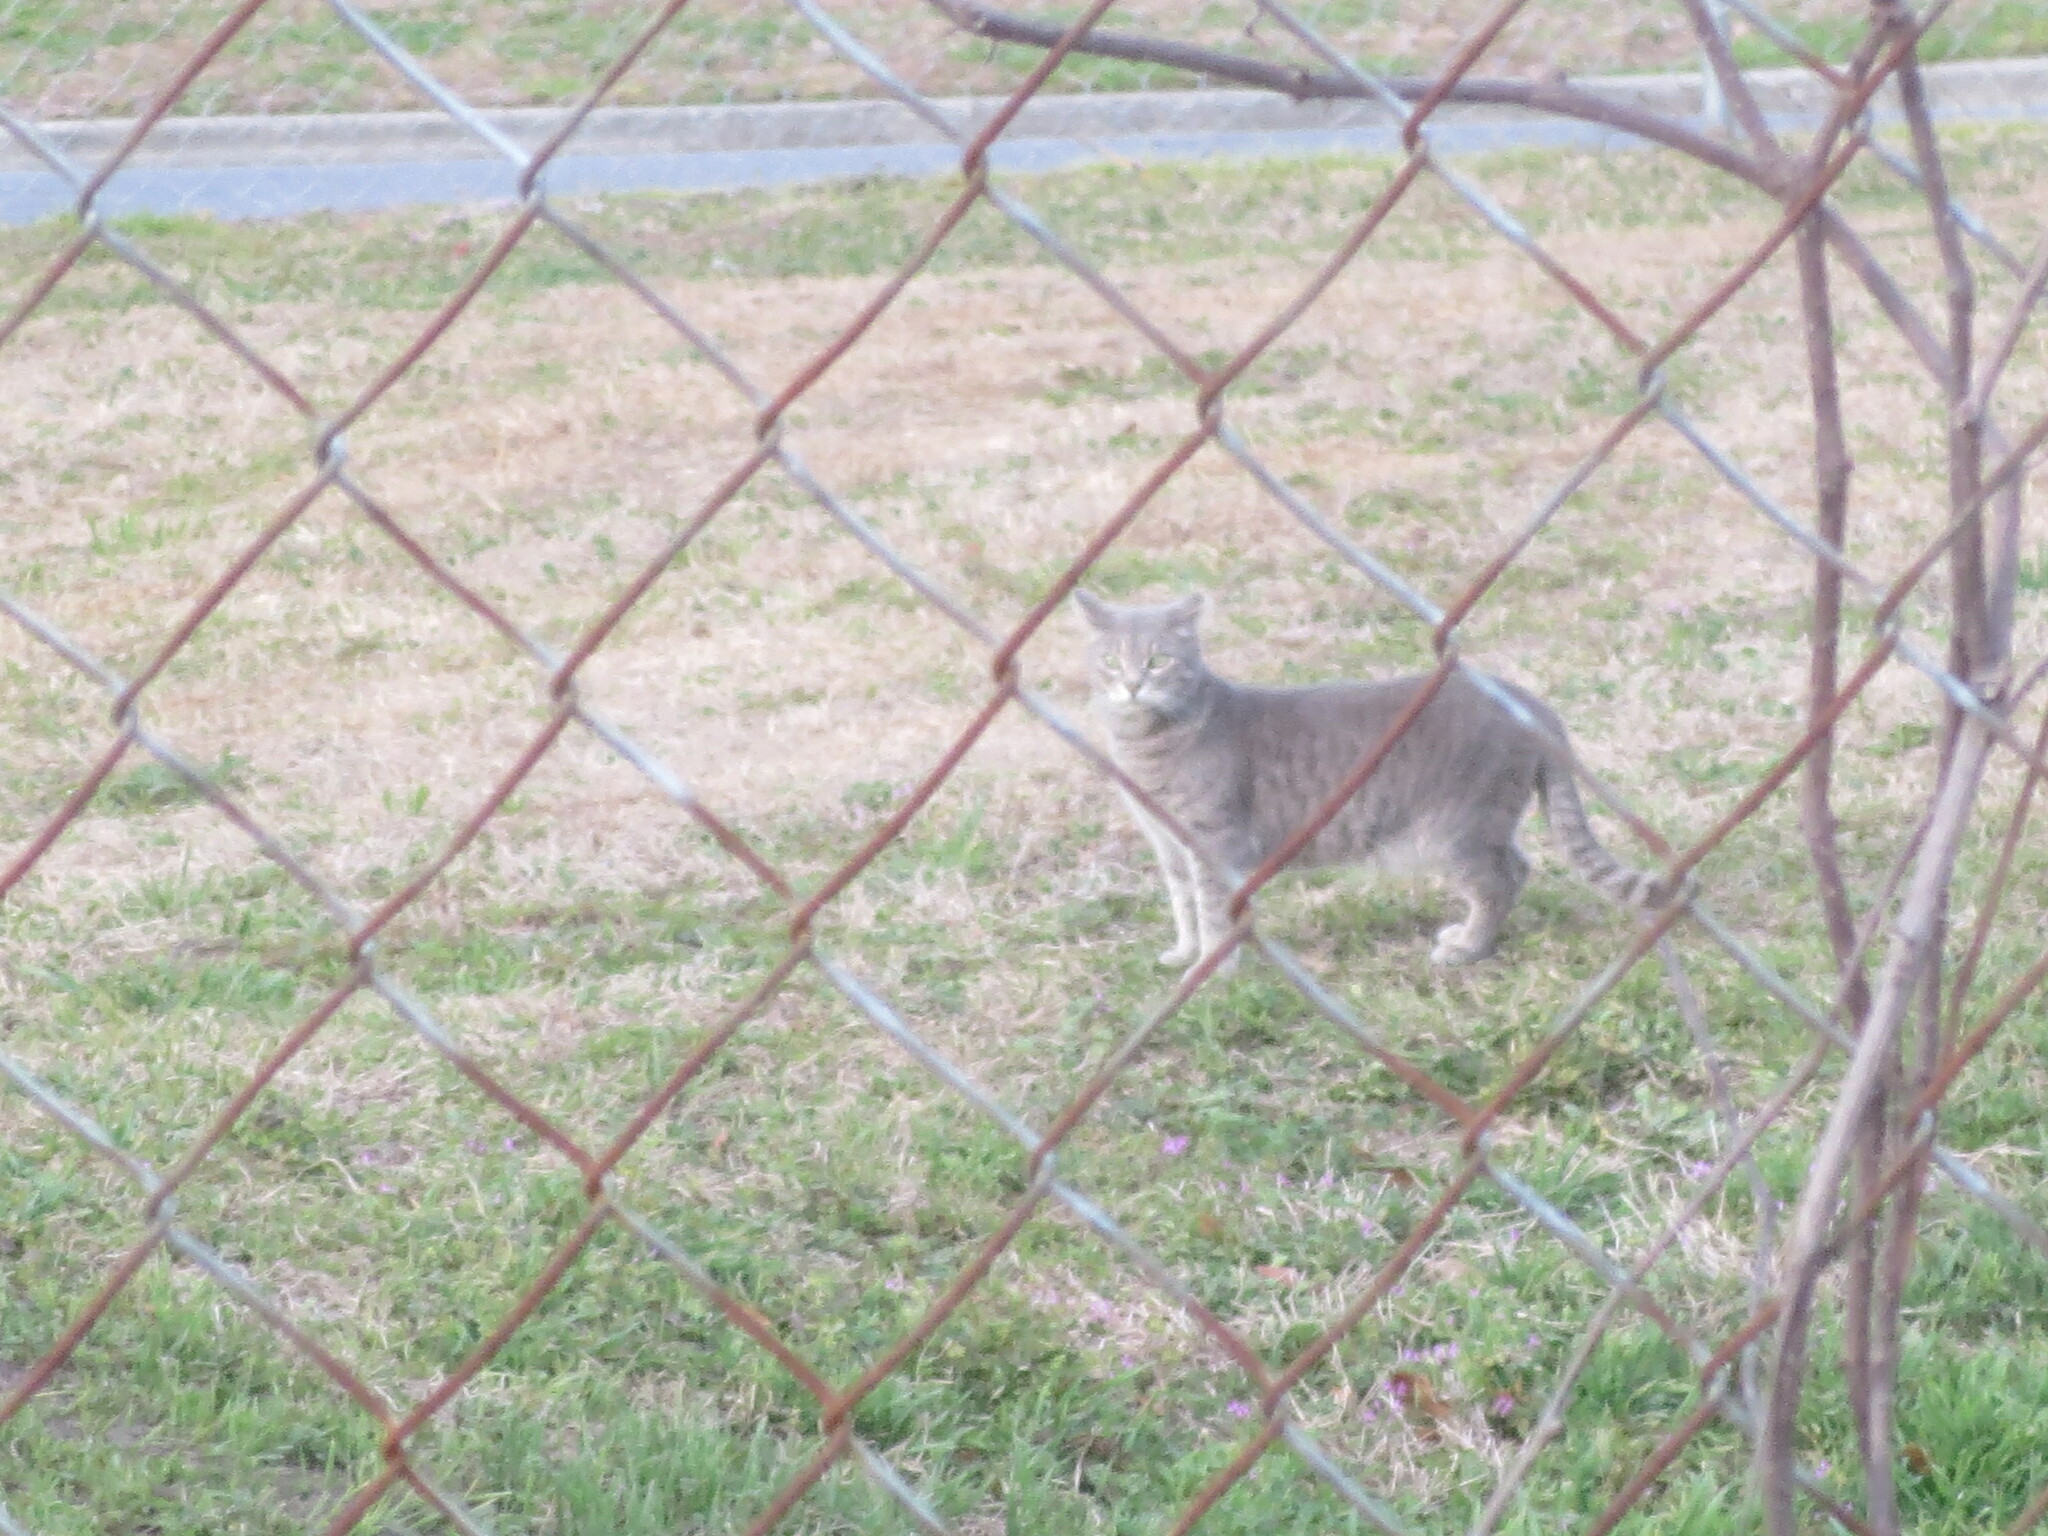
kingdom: Animalia
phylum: Chordata
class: Mammalia
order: Carnivora
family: Felidae
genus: Felis
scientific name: Felis catus
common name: Domestic cat
